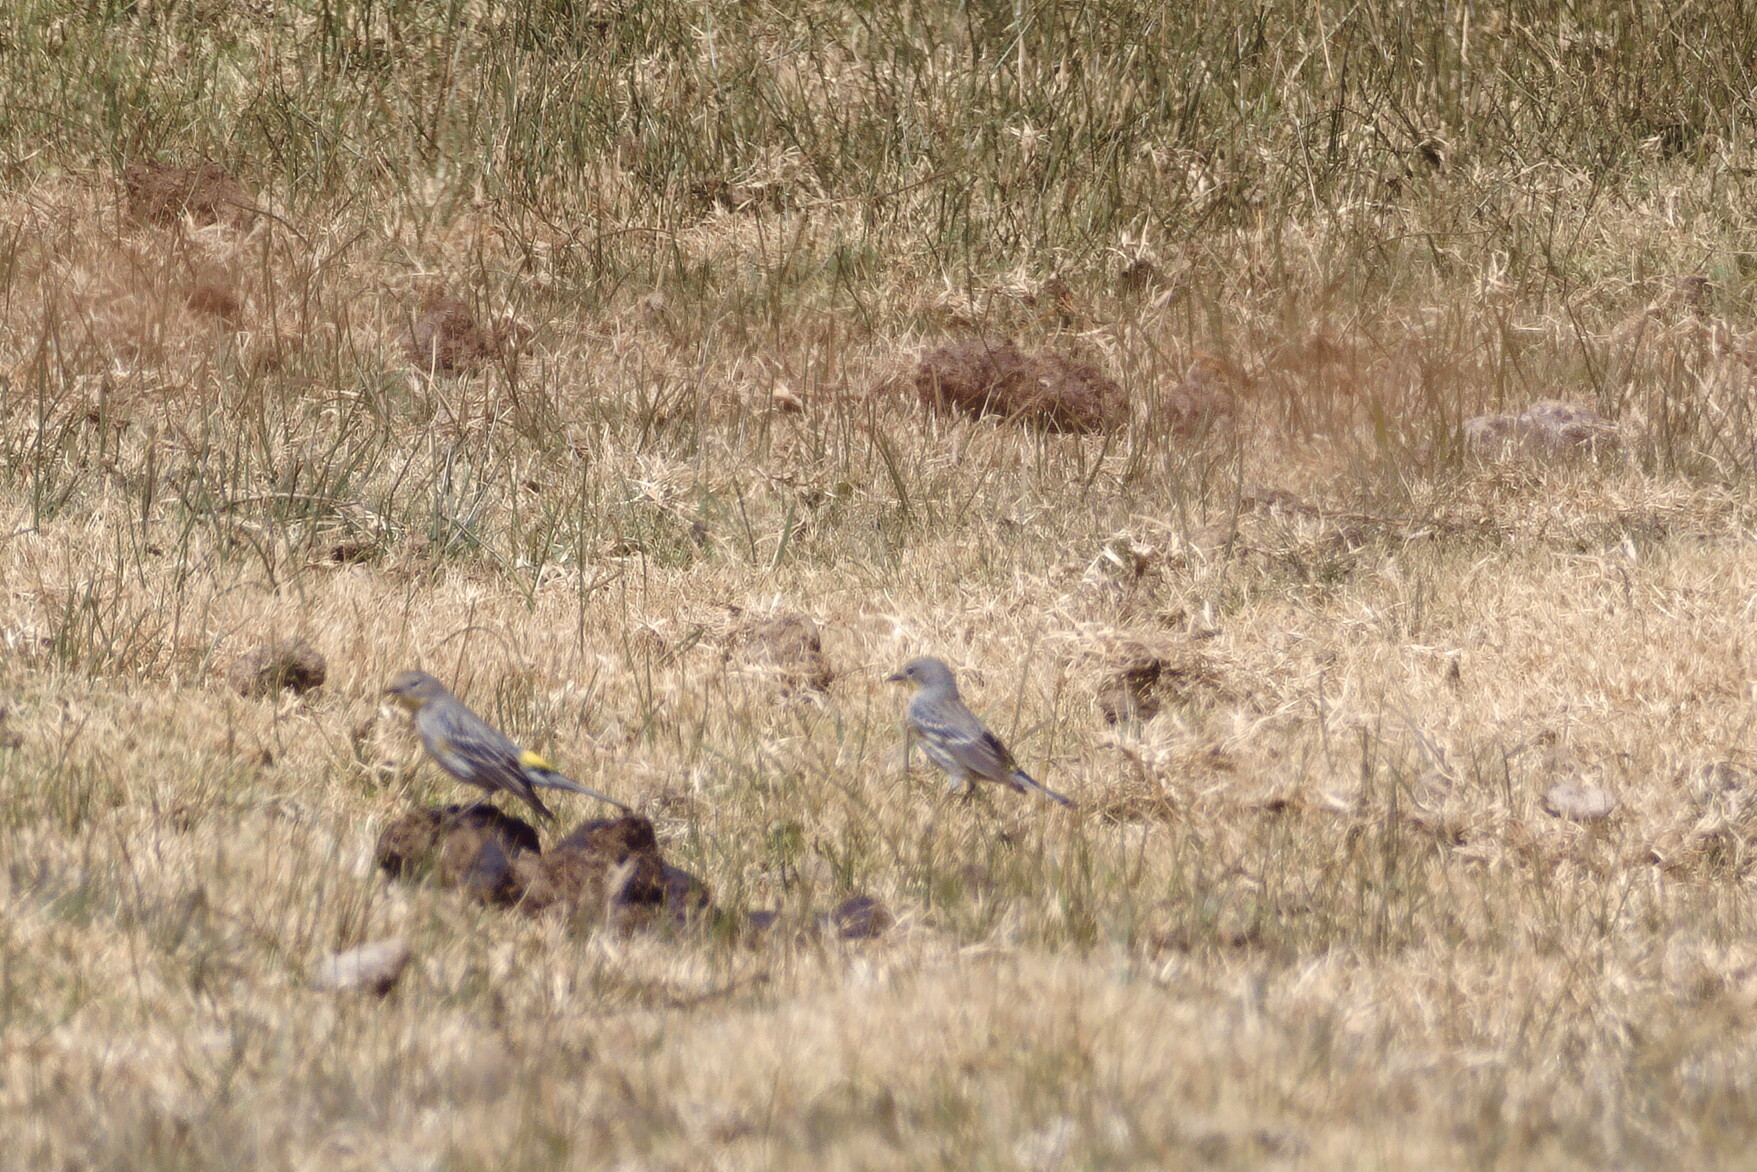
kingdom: Animalia
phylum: Chordata
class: Aves
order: Passeriformes
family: Parulidae
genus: Setophaga
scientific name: Setophaga coronata
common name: Myrtle warbler
